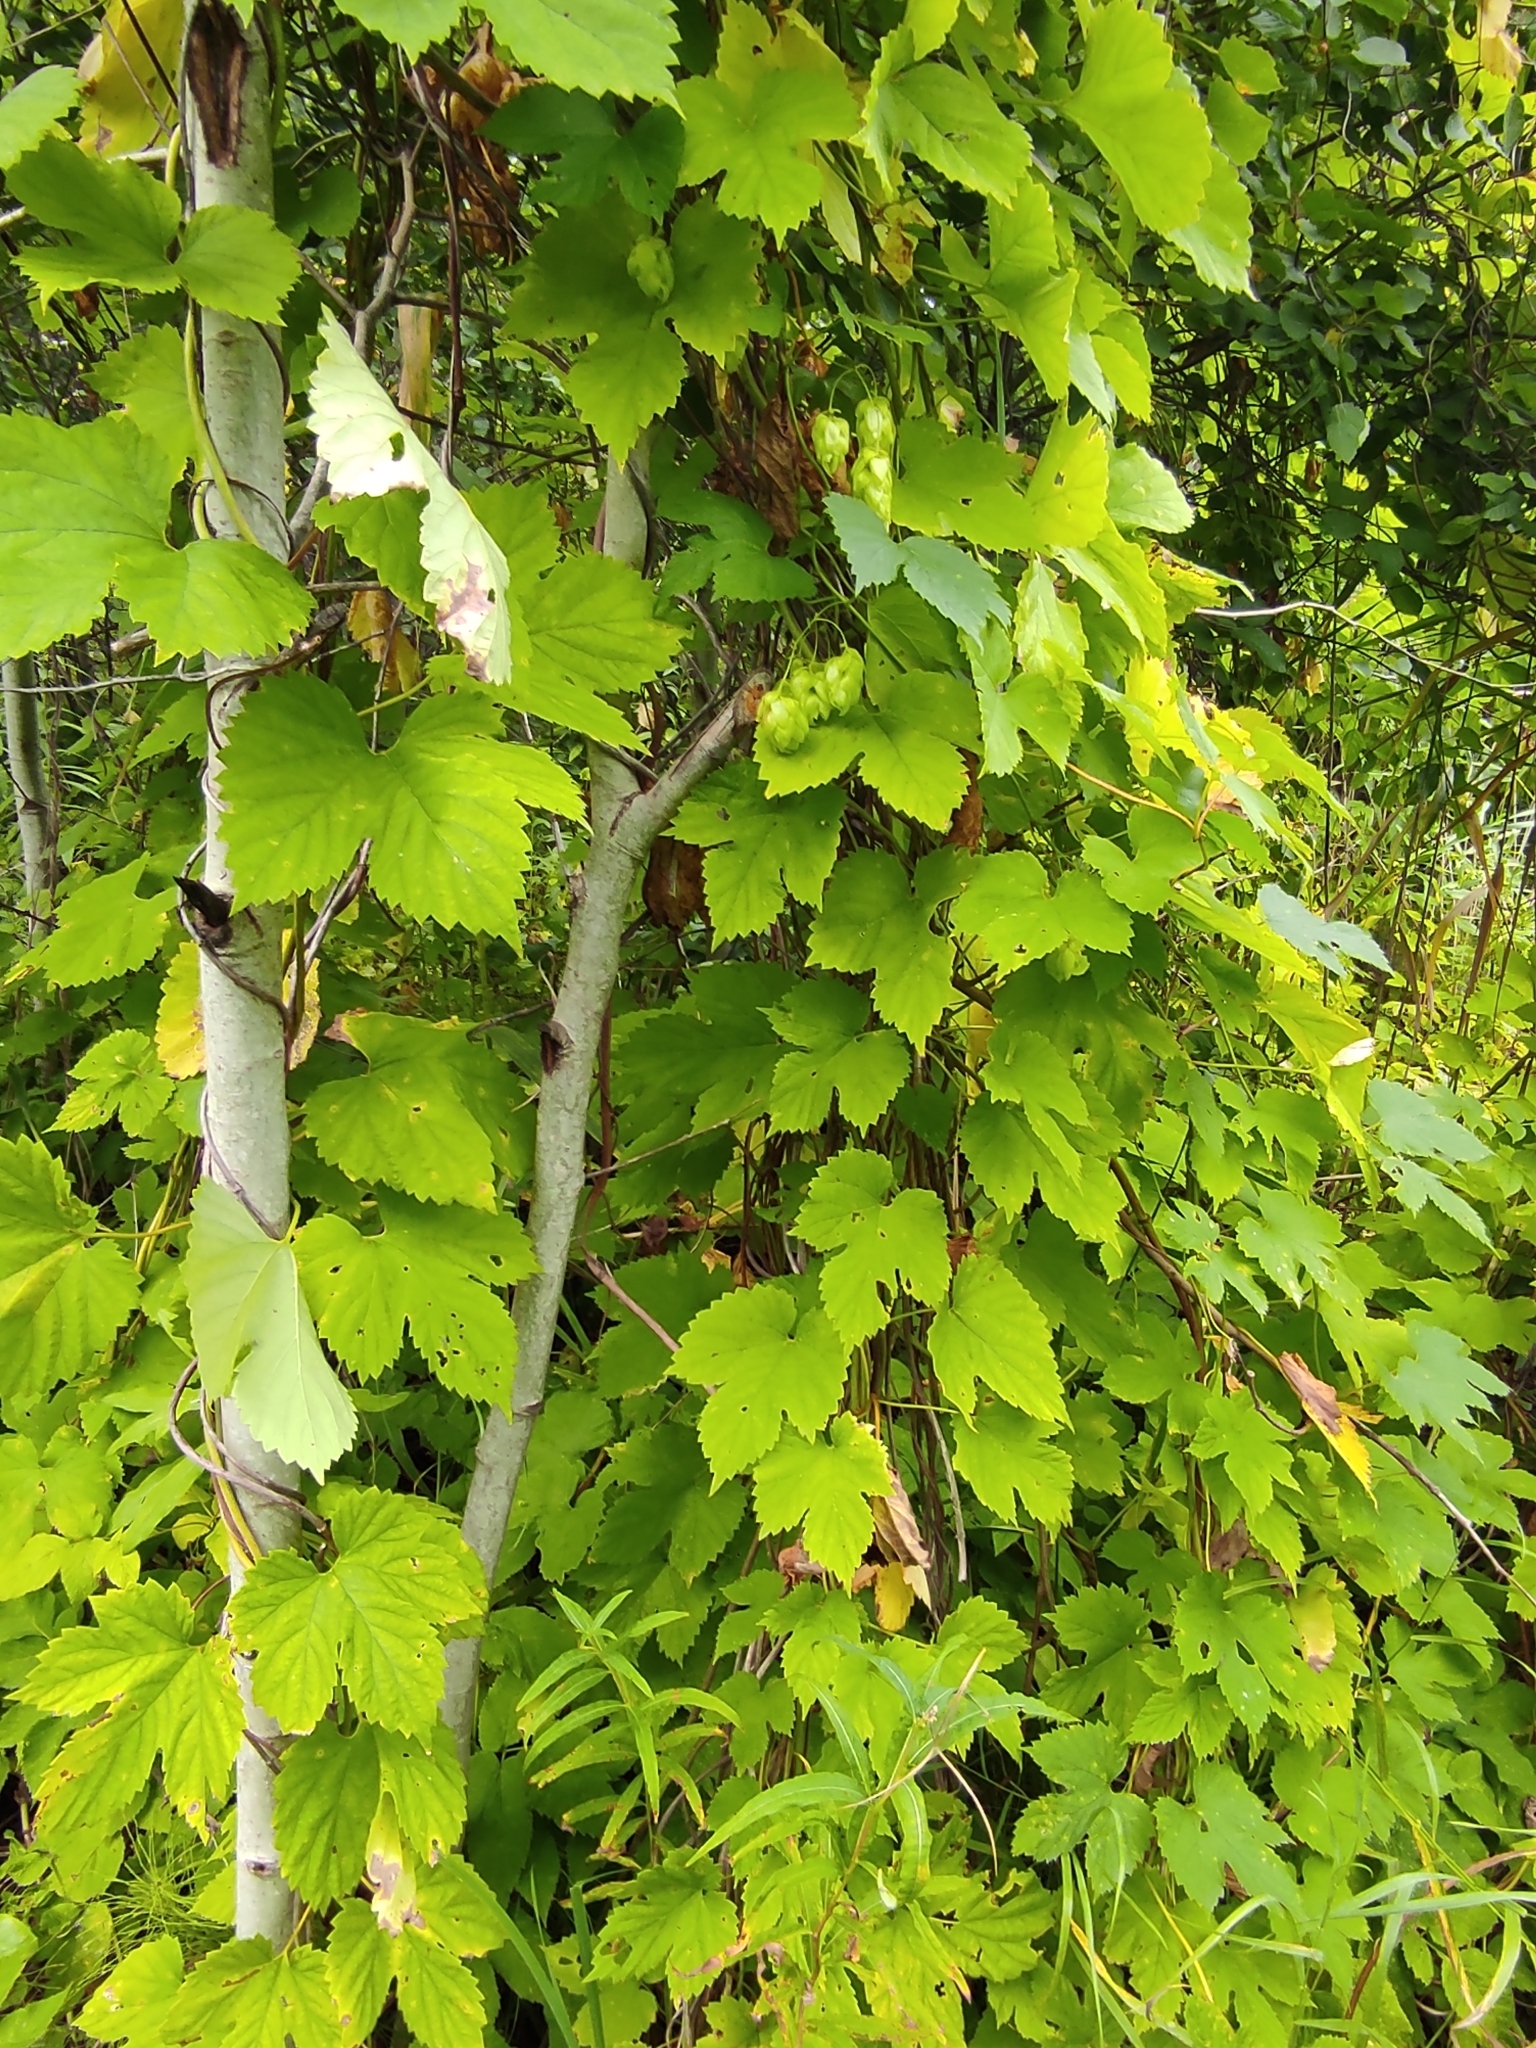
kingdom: Plantae
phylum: Tracheophyta
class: Magnoliopsida
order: Rosales
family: Cannabaceae
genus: Humulus
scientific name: Humulus lupulus
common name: Hop
